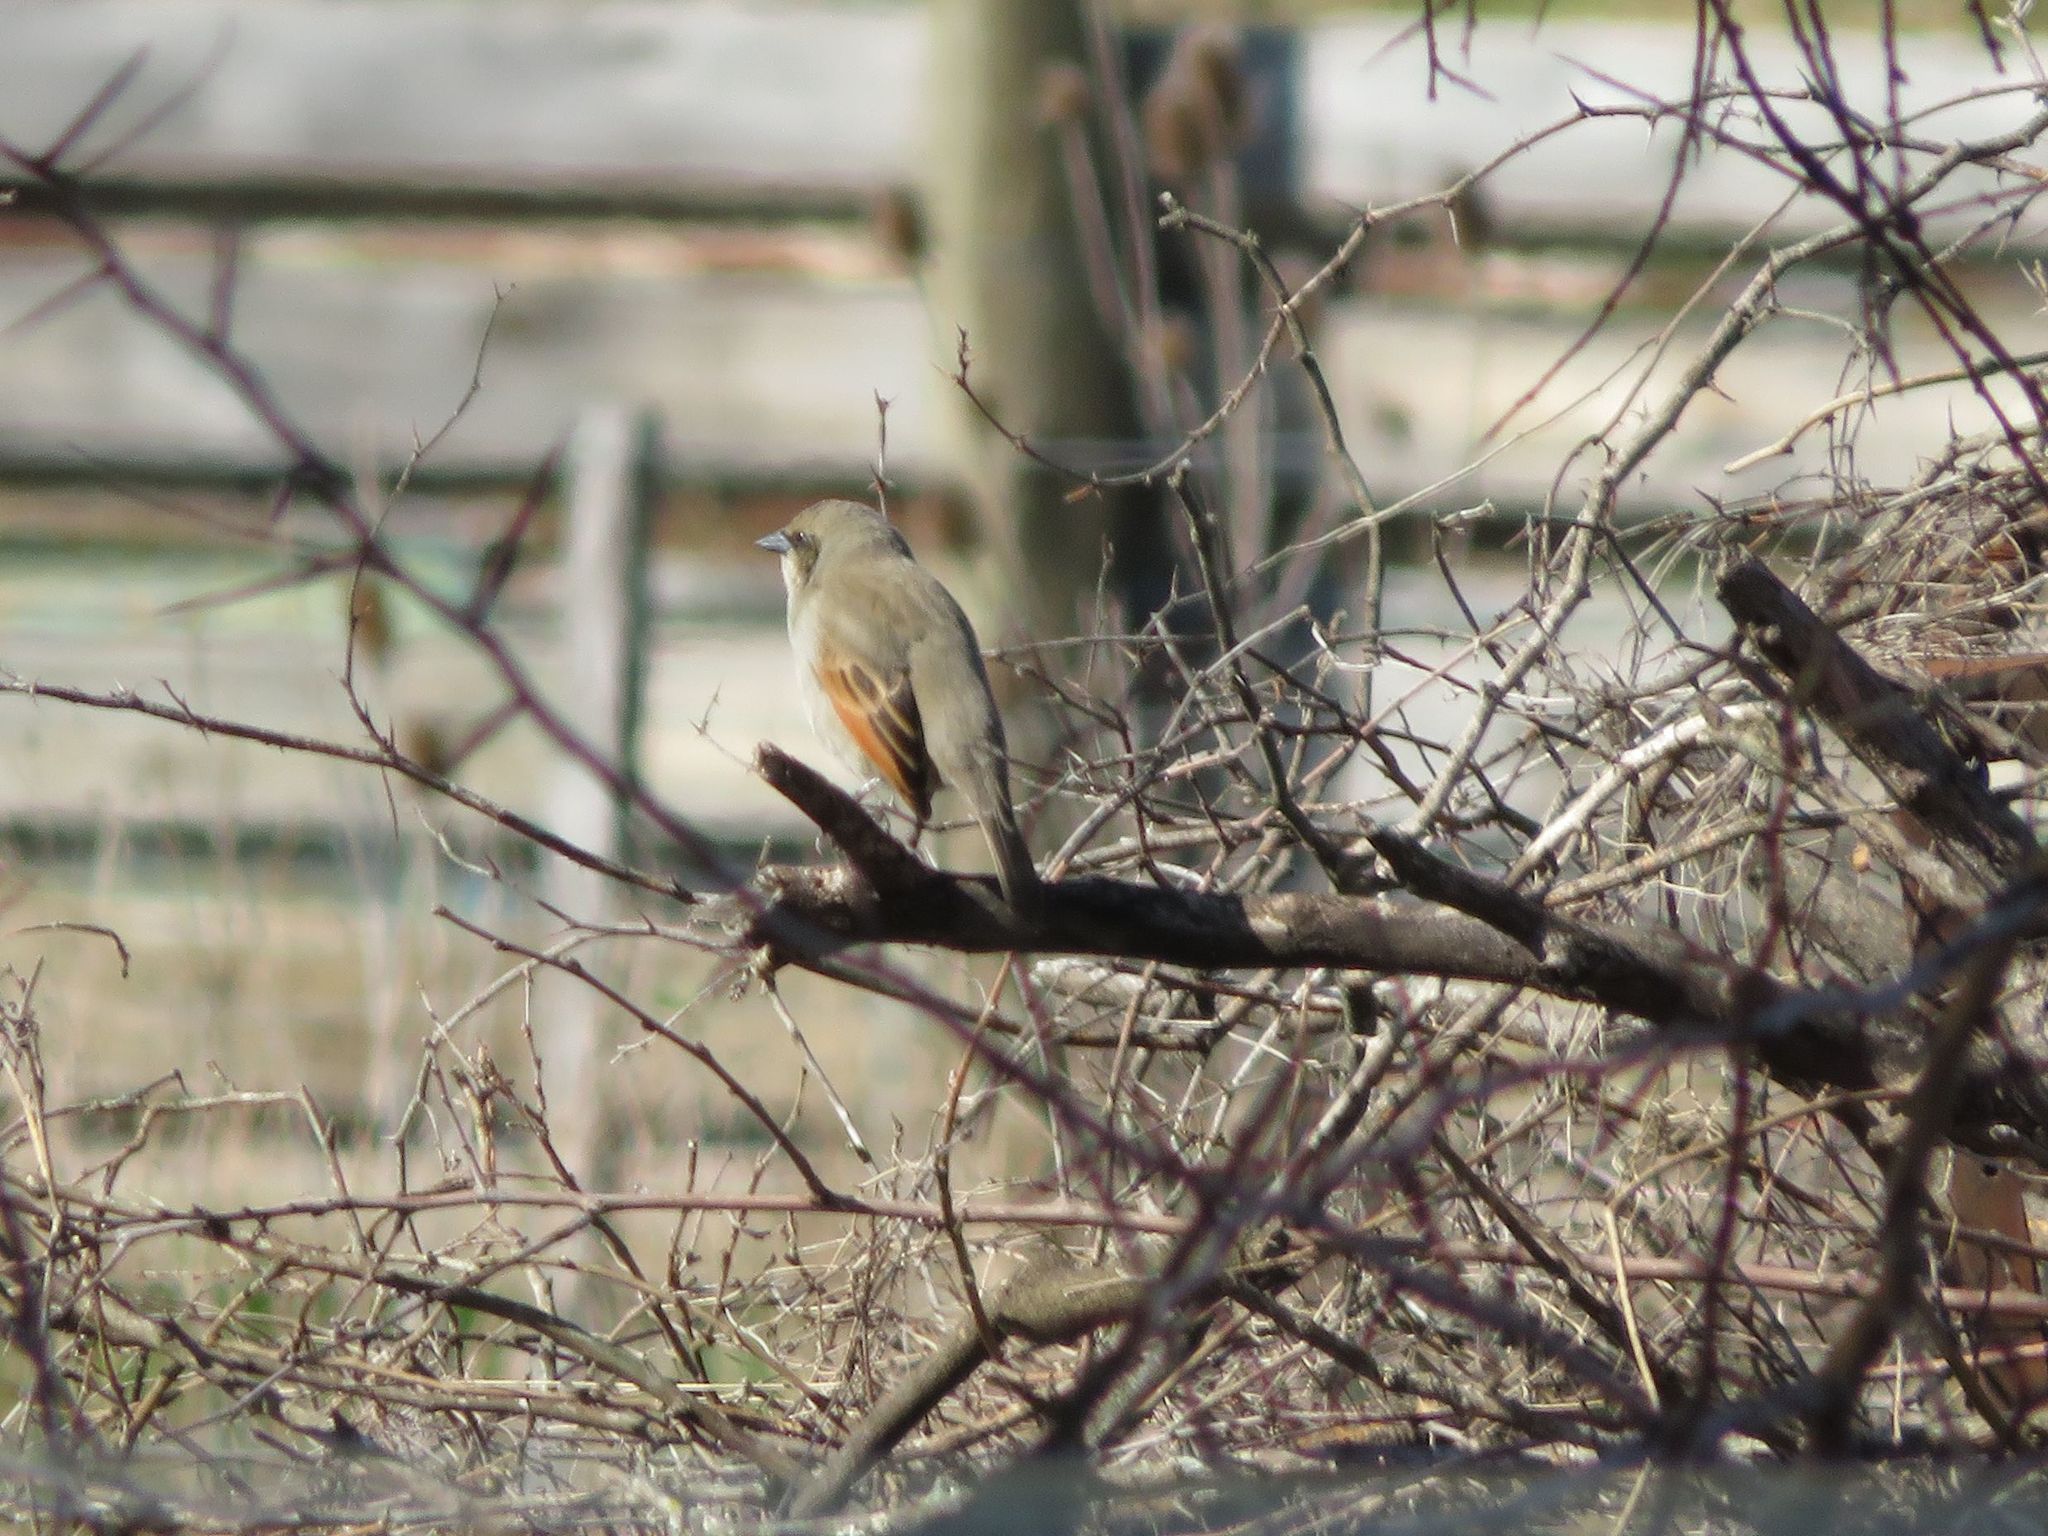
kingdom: Animalia
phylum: Chordata
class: Aves
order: Passeriformes
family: Icteridae
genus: Agelaioides
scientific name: Agelaioides badius
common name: Baywing
